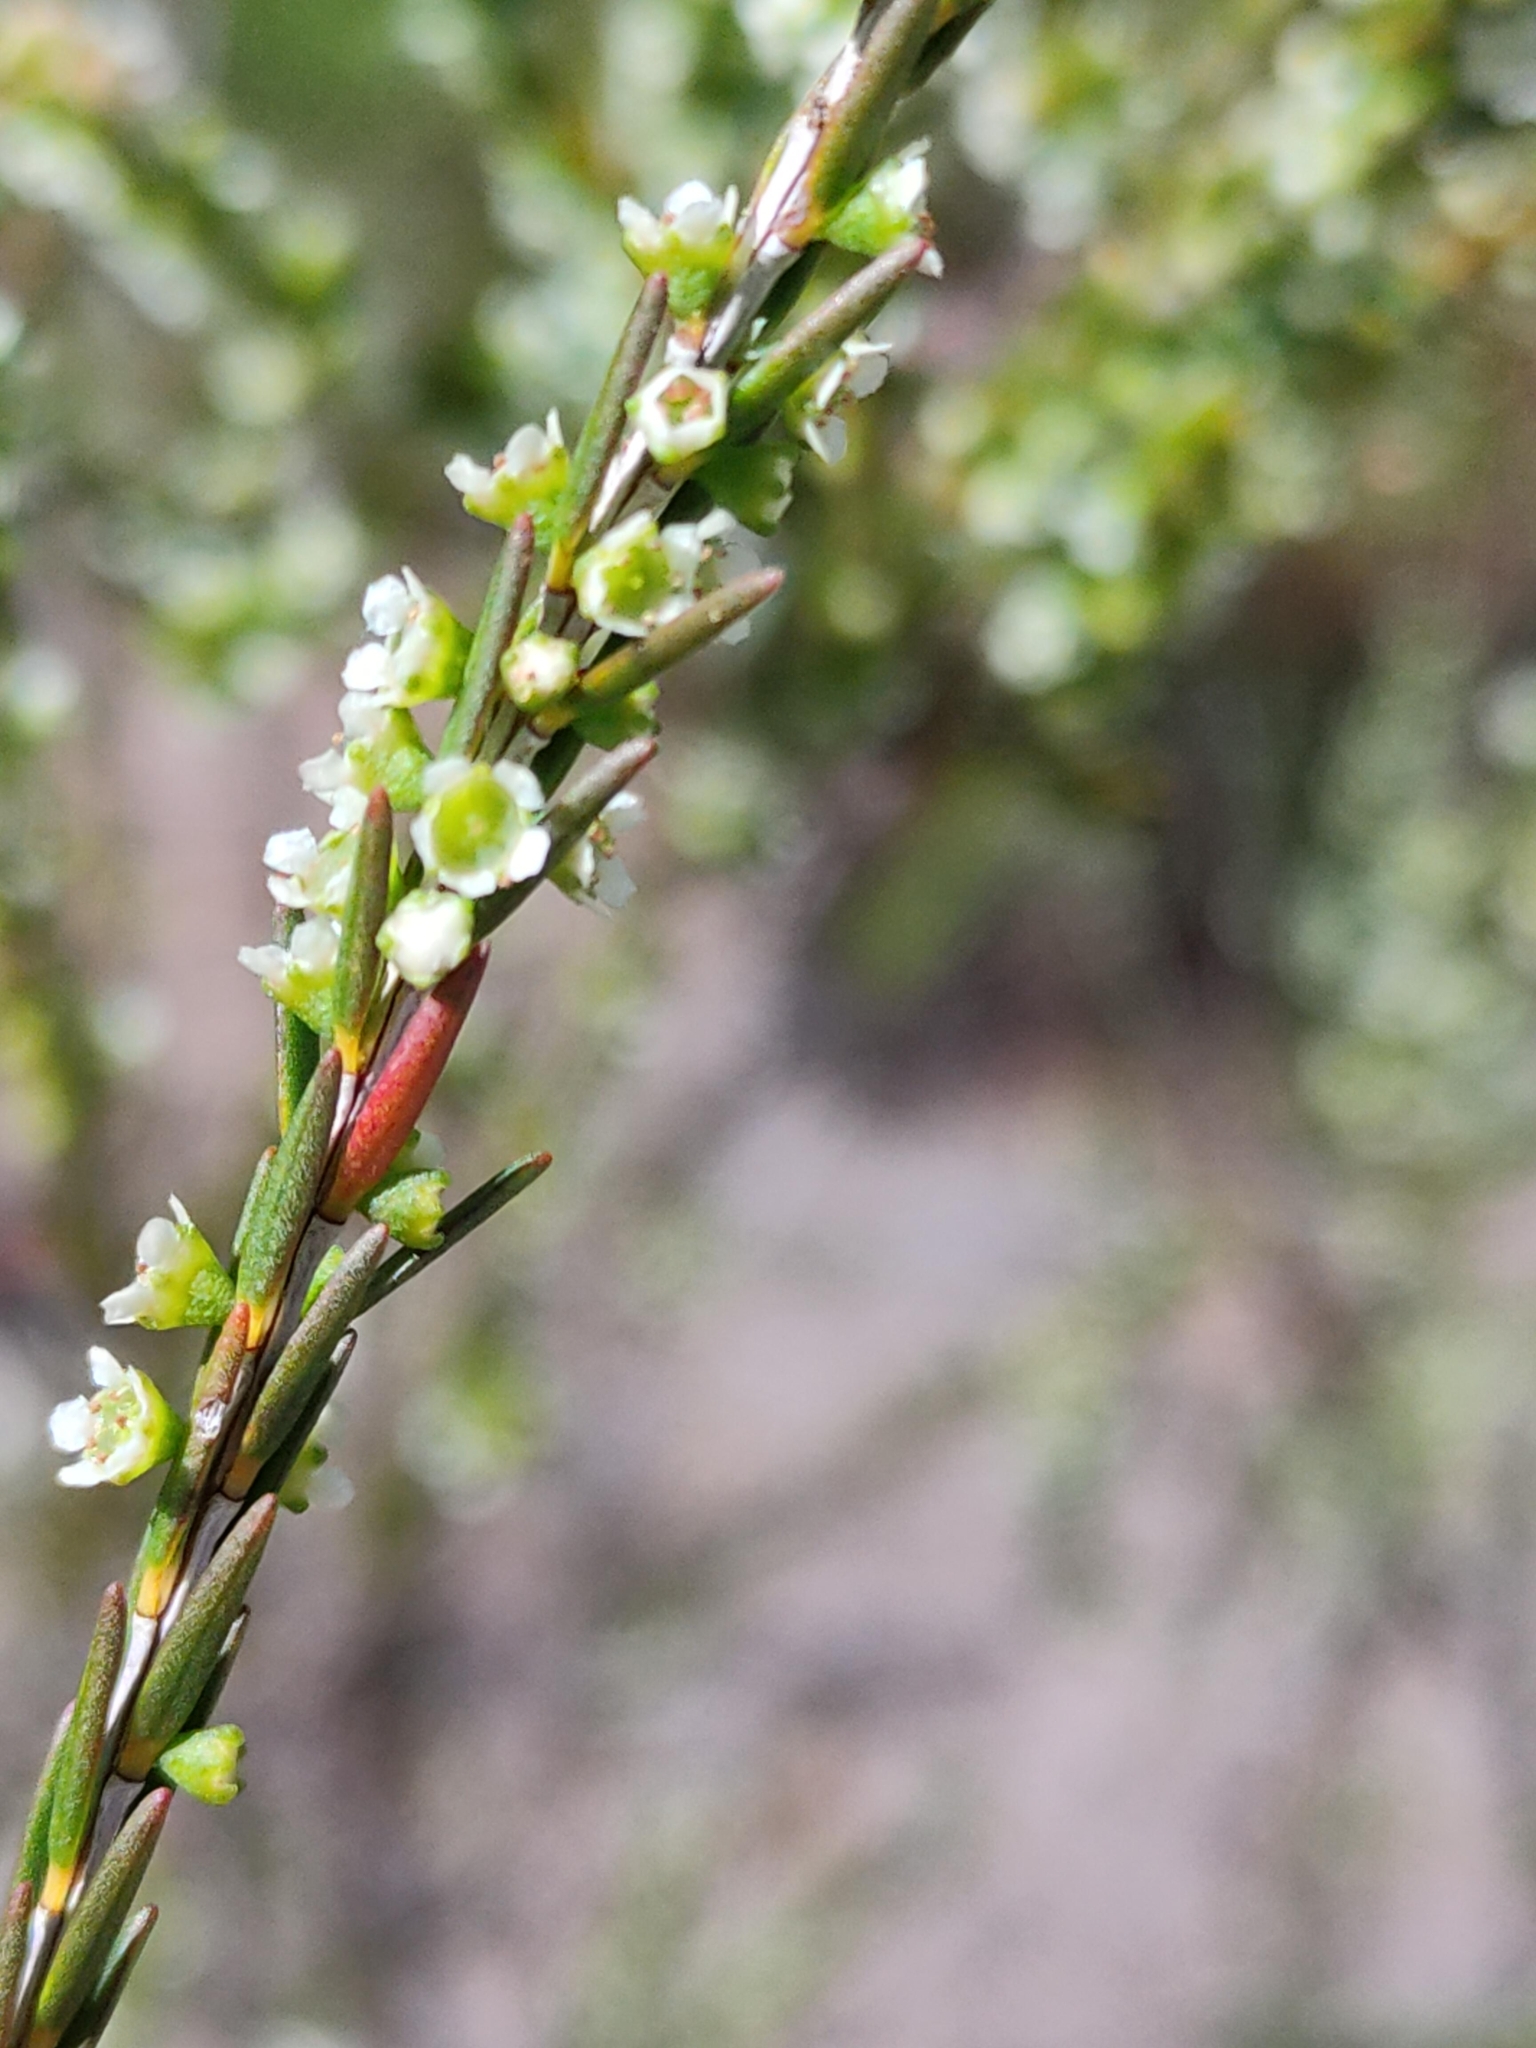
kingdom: Plantae
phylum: Tracheophyta
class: Magnoliopsida
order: Myrtales
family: Myrtaceae
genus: Ochrosperma
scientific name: Ochrosperma lineare
